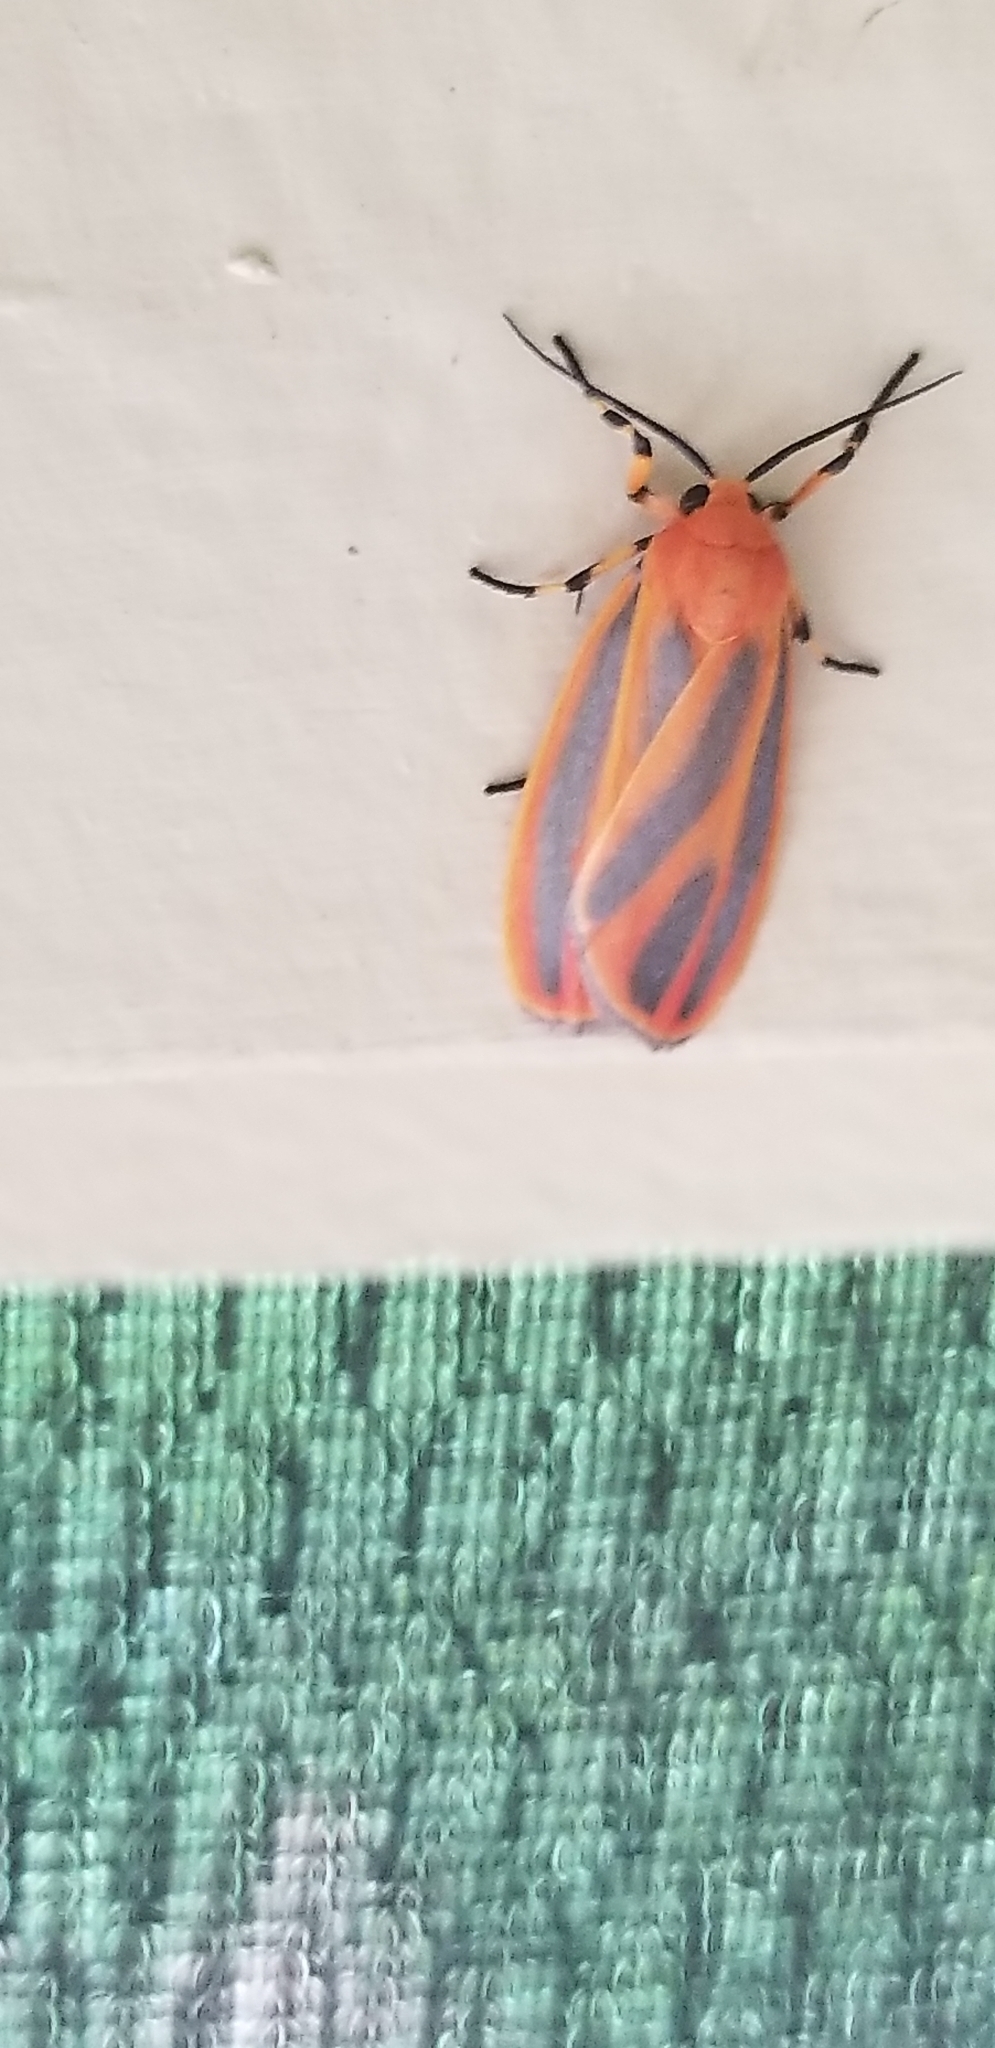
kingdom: Animalia
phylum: Arthropoda
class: Insecta
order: Lepidoptera
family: Erebidae
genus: Hypoprepia
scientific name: Hypoprepia miniata
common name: Scarlet-winged lichen moth
